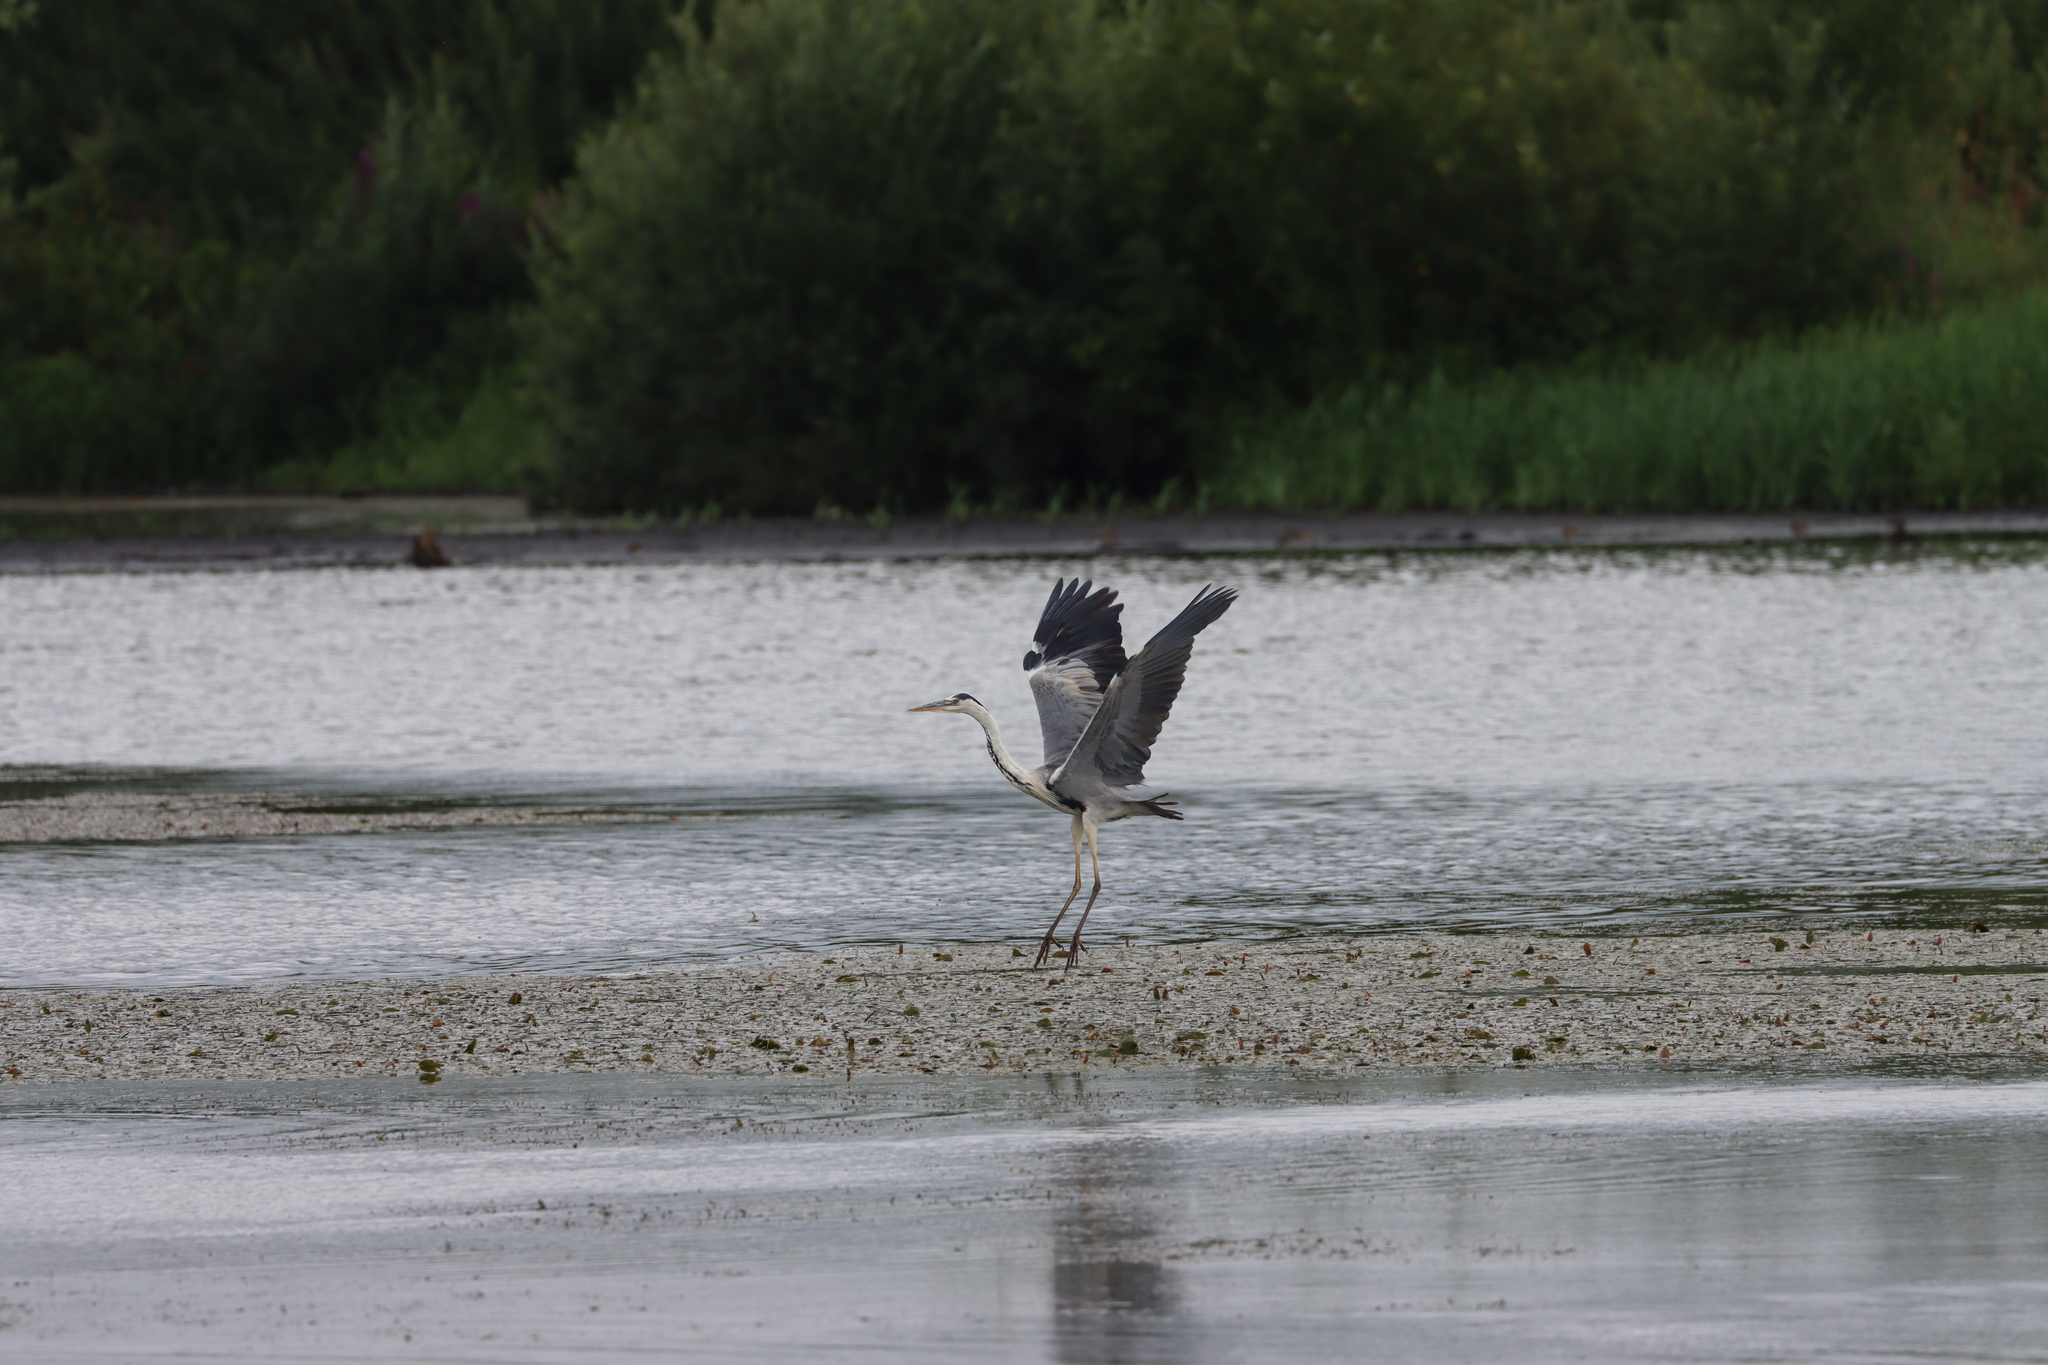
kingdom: Animalia
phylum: Chordata
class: Aves
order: Pelecaniformes
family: Ardeidae
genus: Ardea
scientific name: Ardea cinerea
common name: Grey heron
